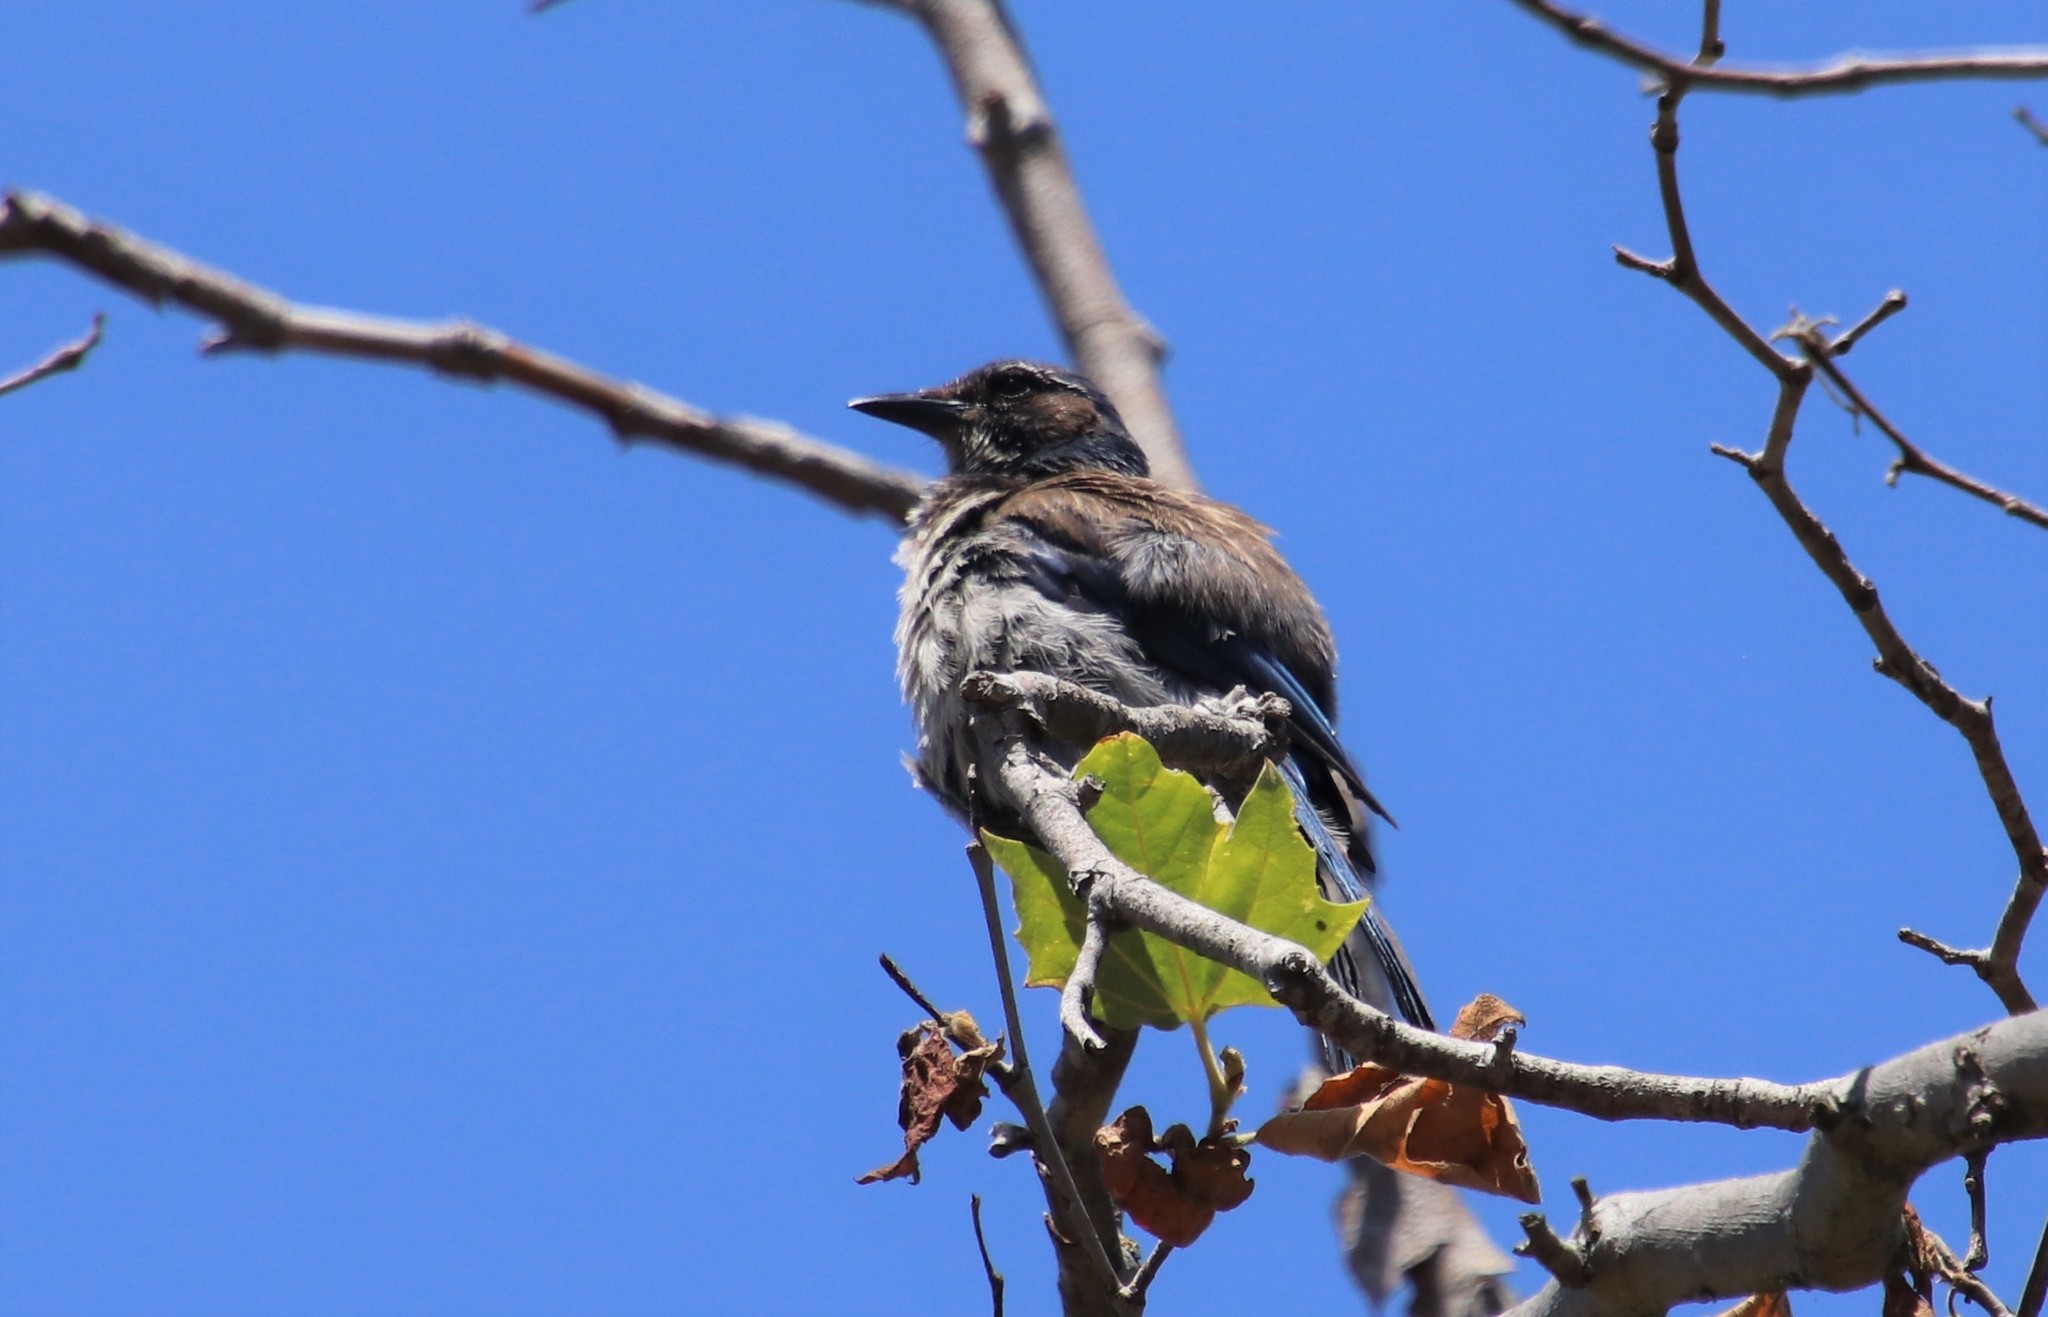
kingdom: Animalia
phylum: Chordata
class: Aves
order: Passeriformes
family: Corvidae
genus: Aphelocoma
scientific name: Aphelocoma californica
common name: California scrub-jay
